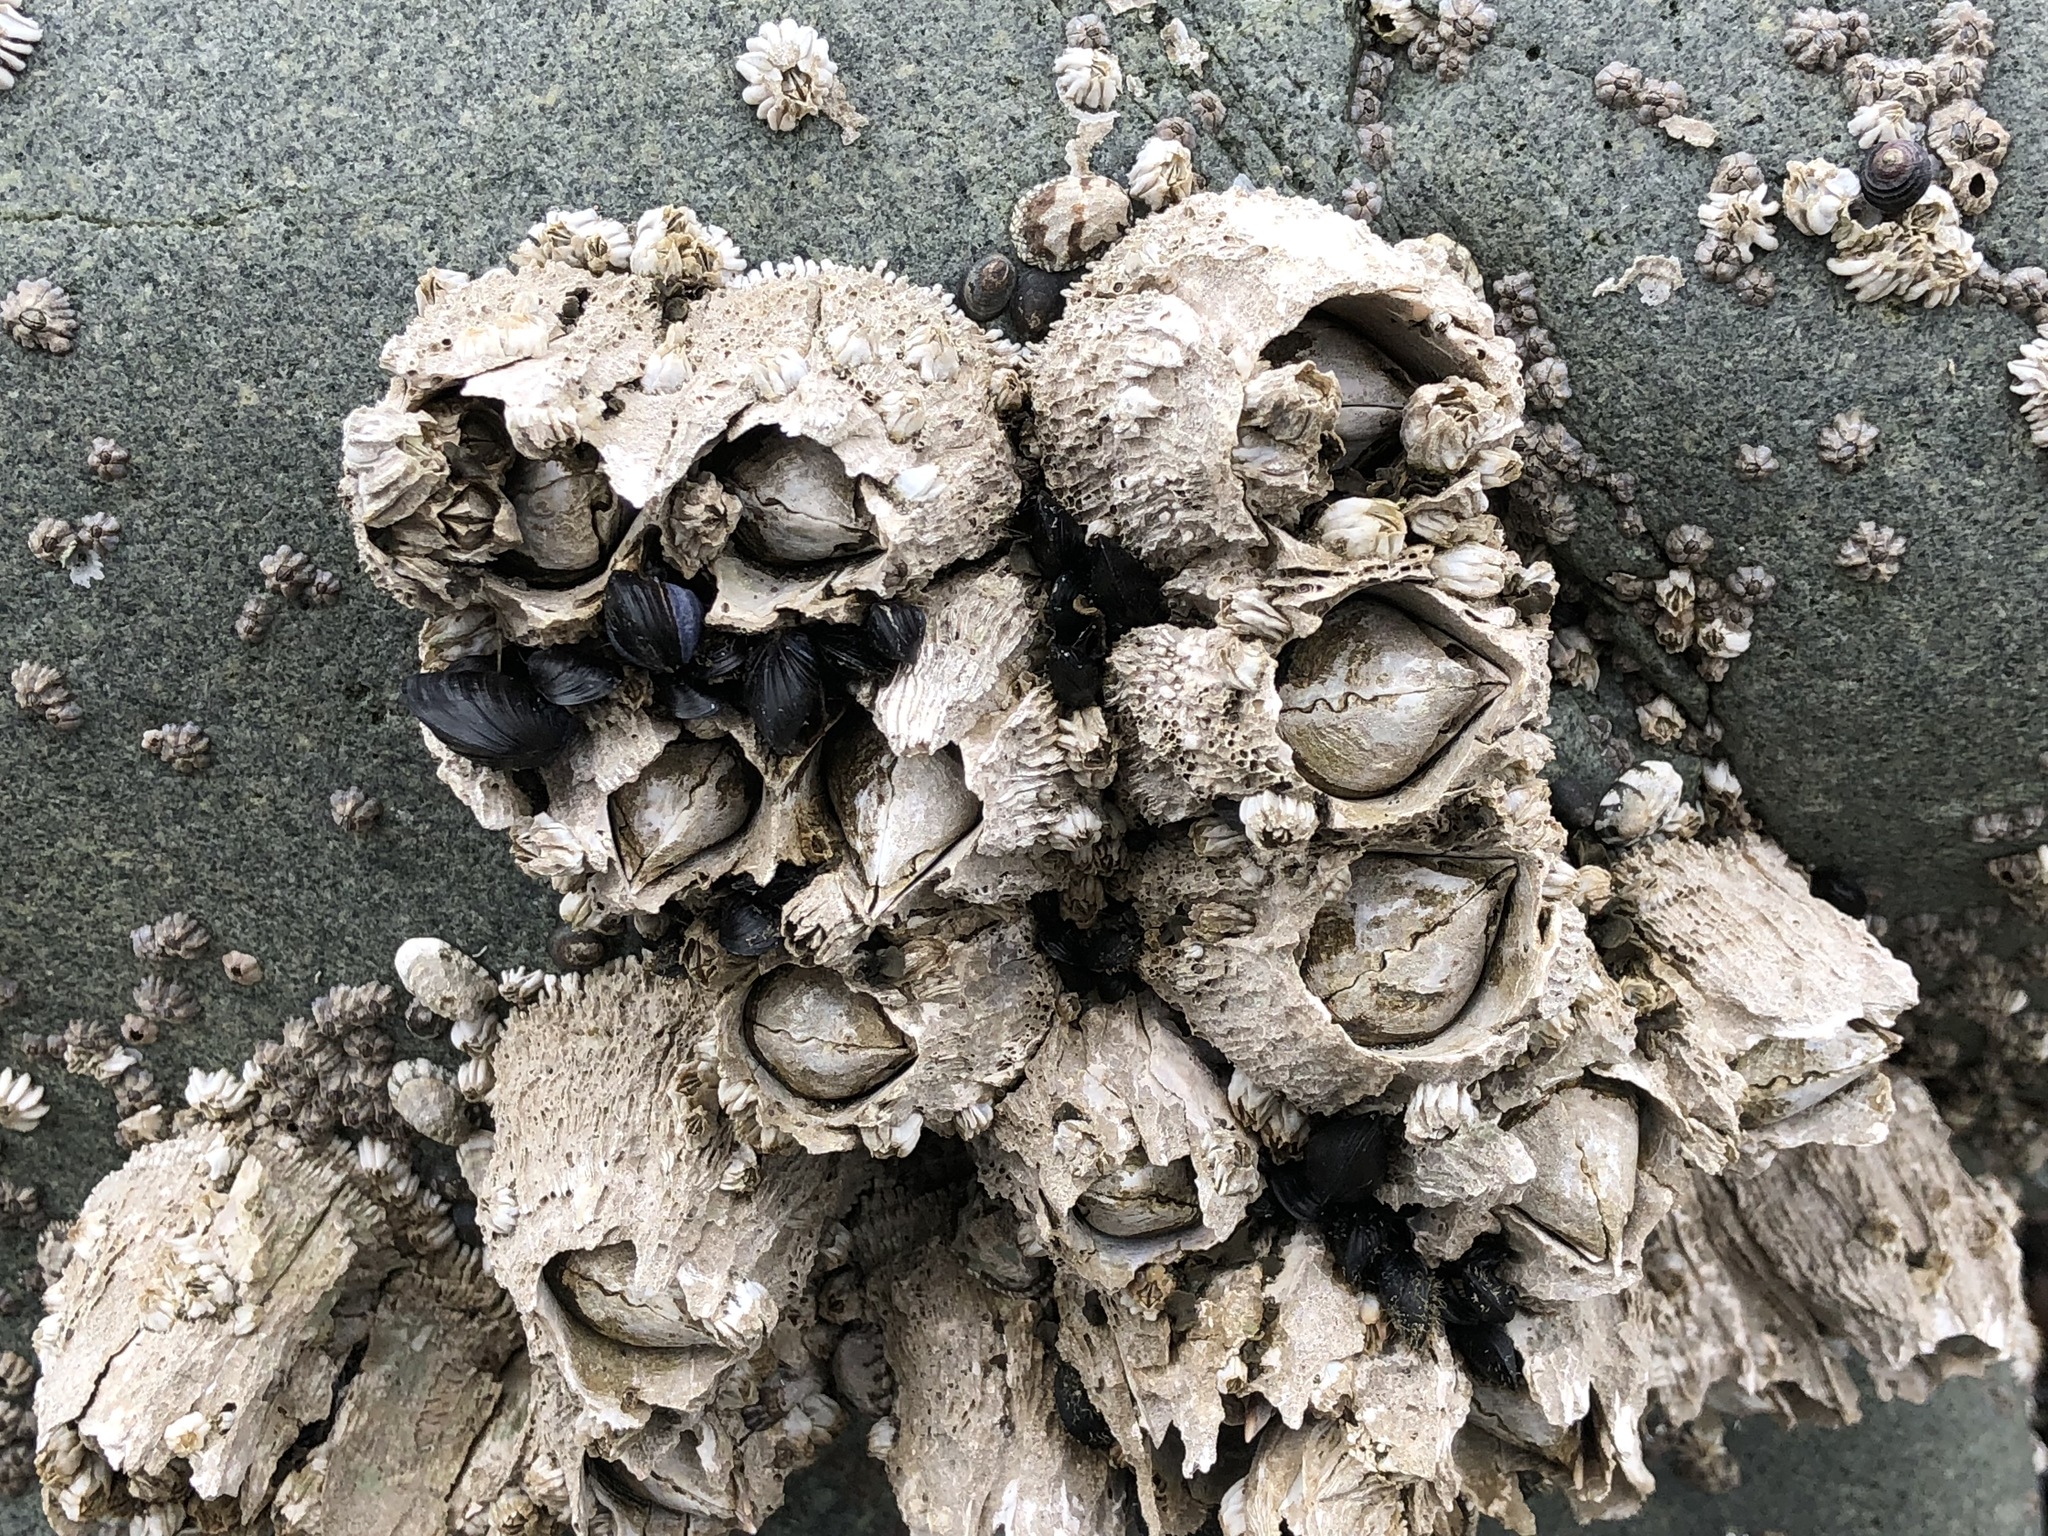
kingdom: Animalia
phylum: Arthropoda
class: Maxillopoda
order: Sessilia
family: Archaeobalanidae
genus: Semibalanus
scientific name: Semibalanus cariosus
